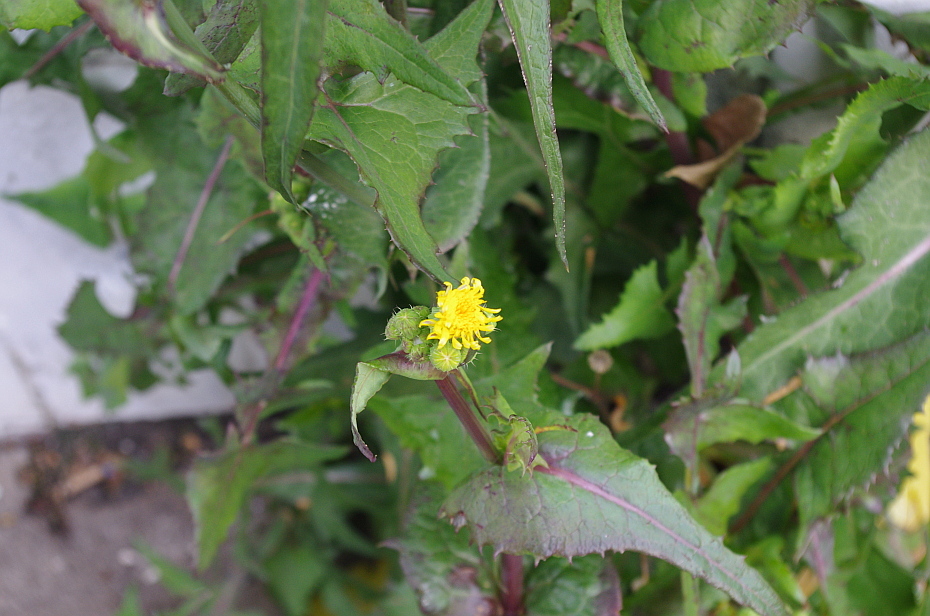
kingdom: Plantae
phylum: Tracheophyta
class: Magnoliopsida
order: Asterales
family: Asteraceae
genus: Sonchus
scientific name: Sonchus oleraceus
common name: Common sowthistle
